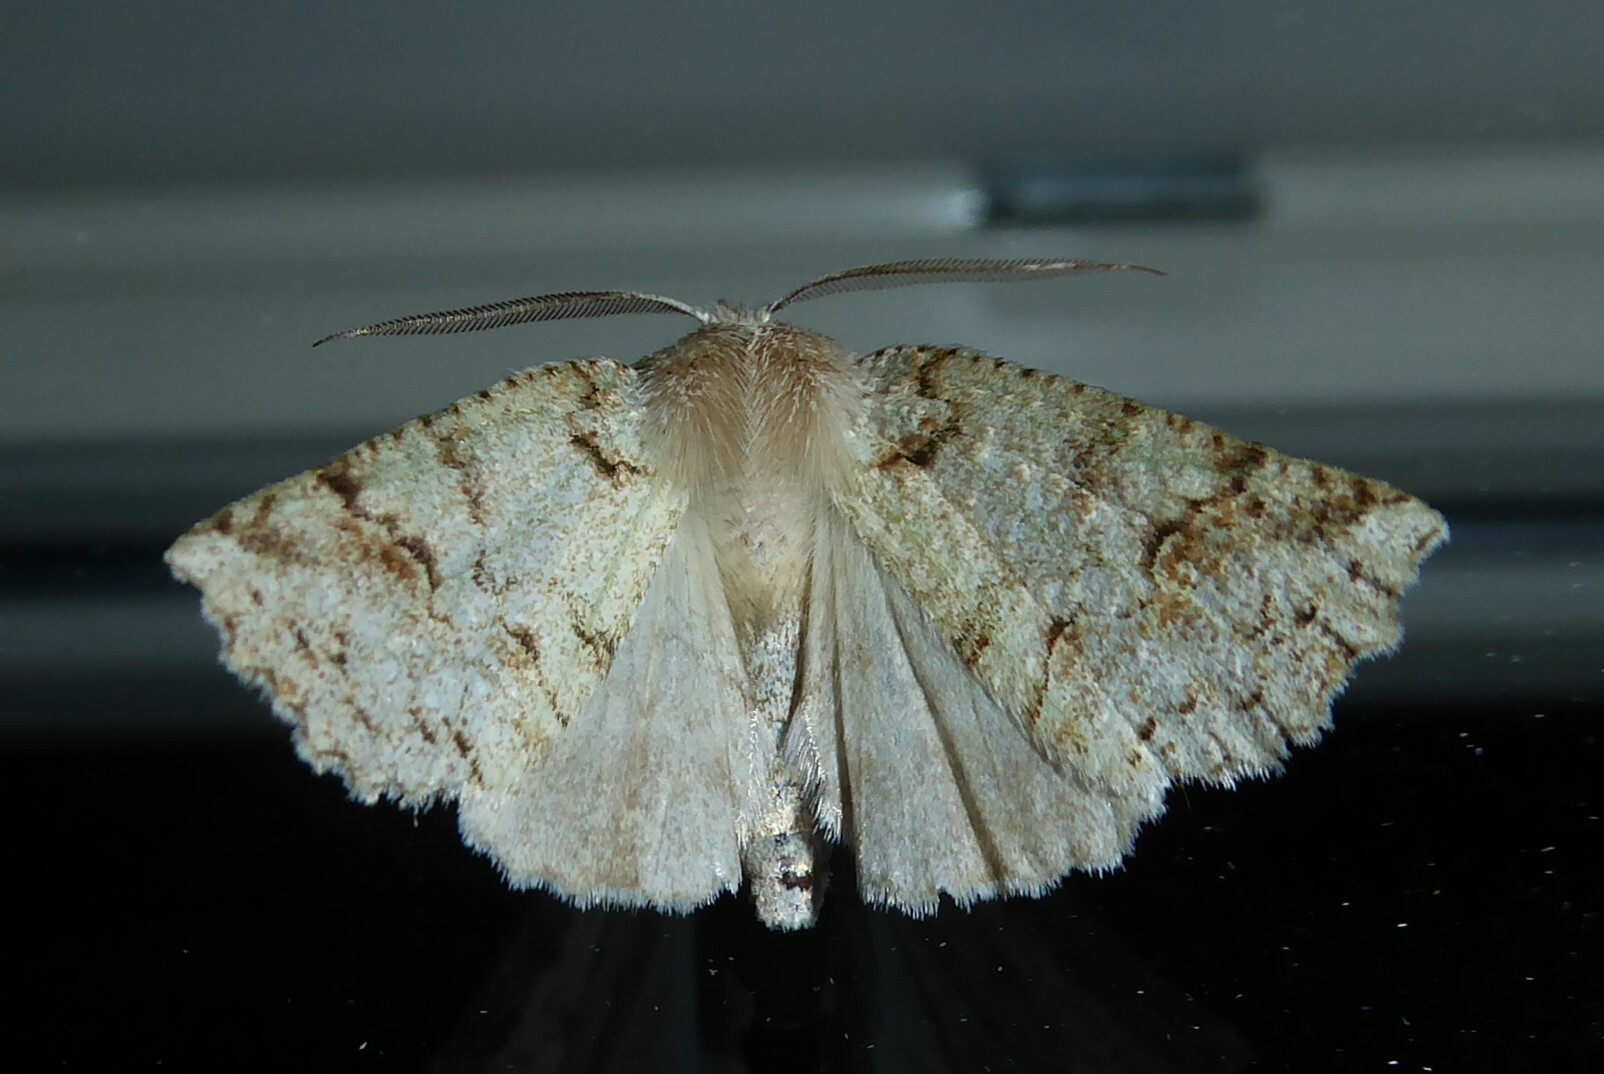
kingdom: Animalia
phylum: Arthropoda
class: Insecta
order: Lepidoptera
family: Geometridae
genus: Declana
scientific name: Declana floccosa
